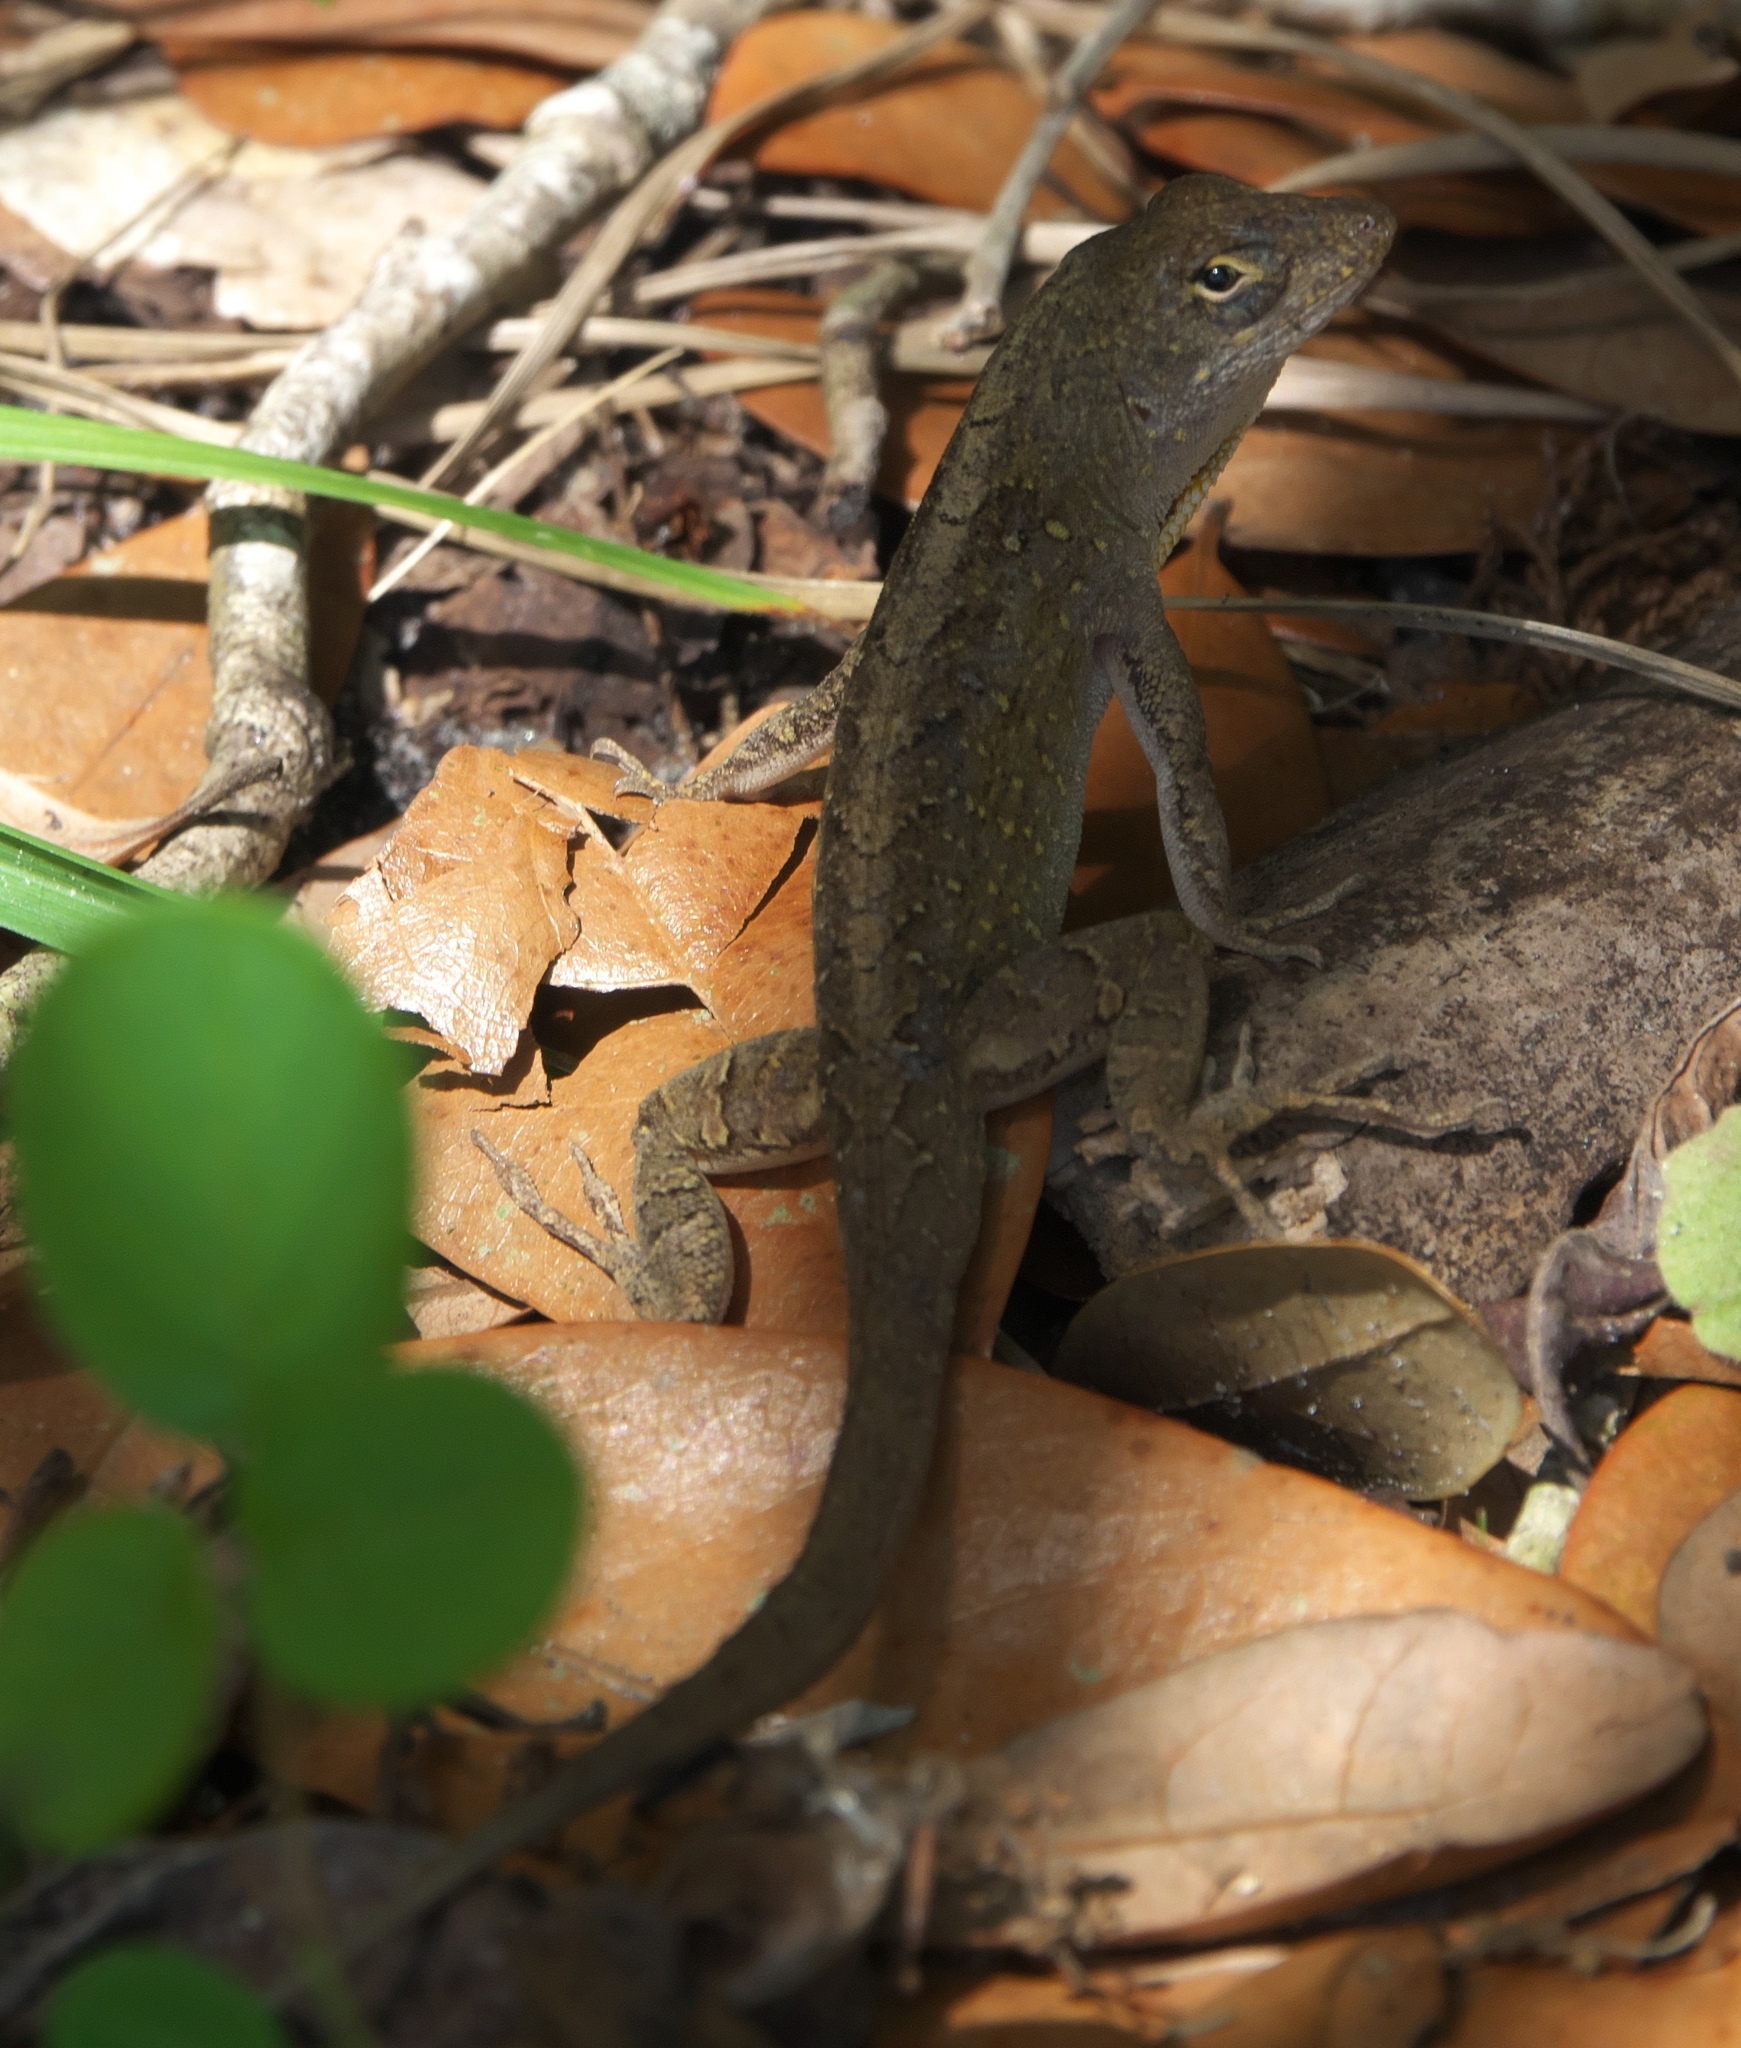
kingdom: Animalia
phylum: Chordata
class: Squamata
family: Dactyloidae
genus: Anolis
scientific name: Anolis sagrei
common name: Brown anole
